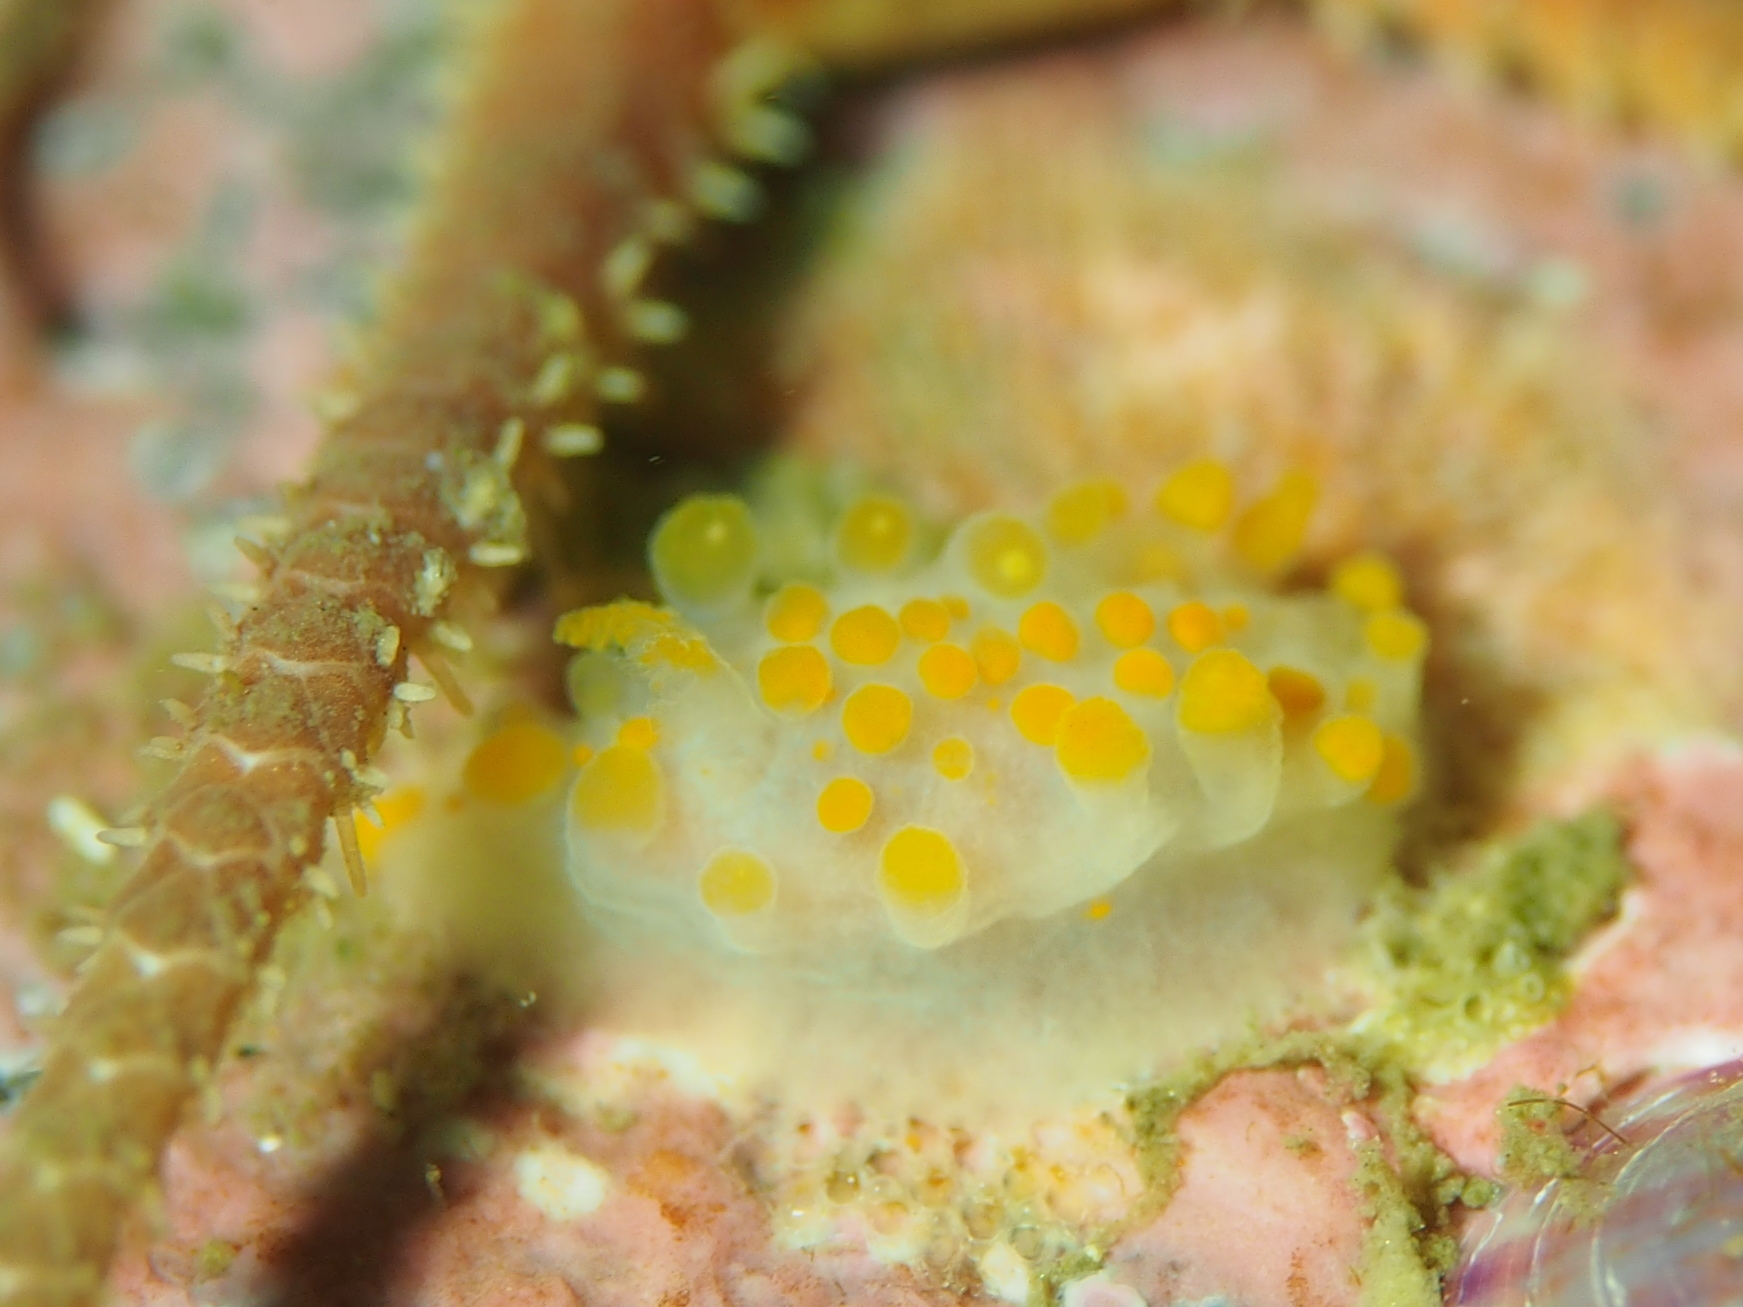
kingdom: Animalia
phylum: Mollusca
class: Gastropoda
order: Nudibranchia
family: Polyceridae
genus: Limacia
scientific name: Limacia clavigera
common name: Orange-clubbed sea slug
